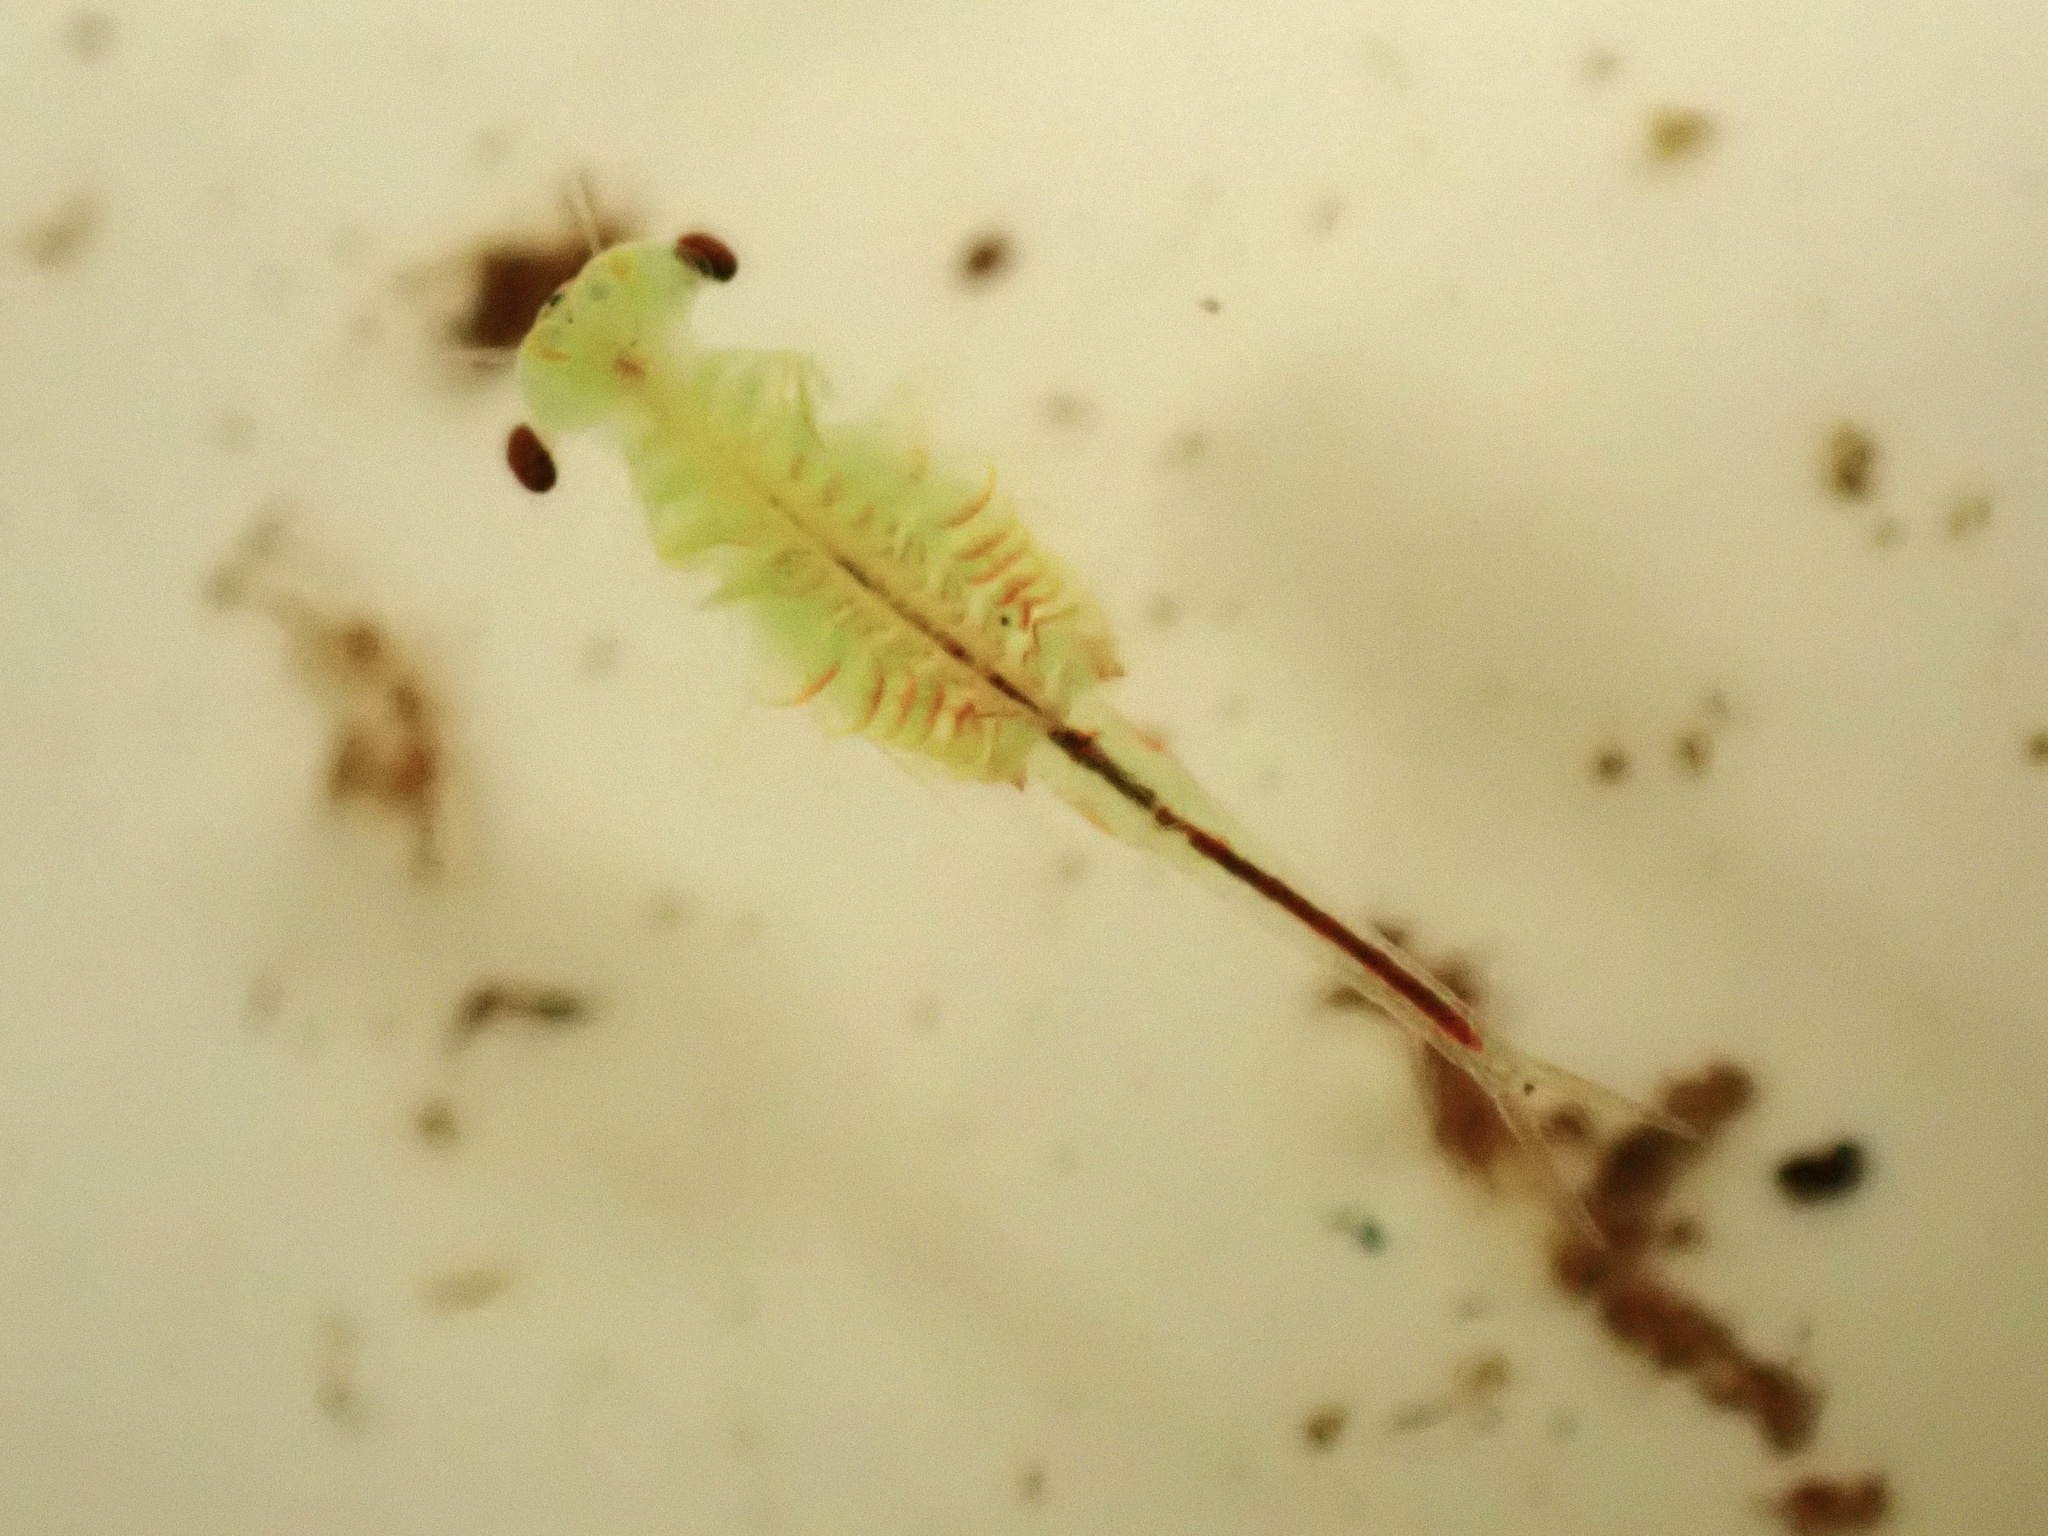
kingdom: Animalia
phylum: Arthropoda
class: Branchiopoda
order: Anostraca
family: Chirocephalidae
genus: Linderiella
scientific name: Linderiella occidentalis
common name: California linderiella
